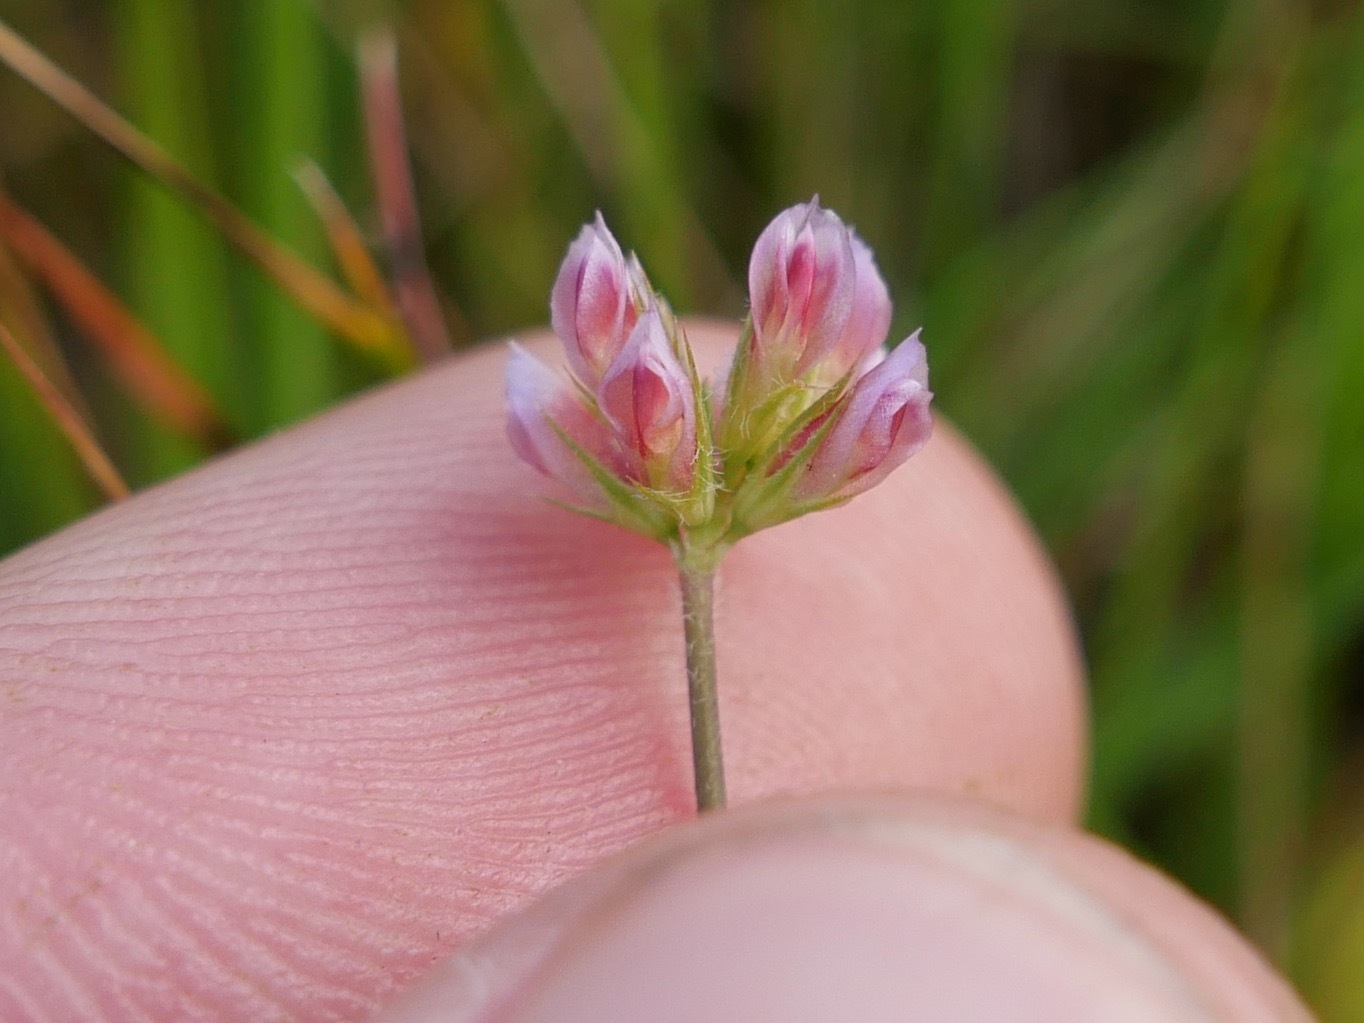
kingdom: Plantae
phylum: Tracheophyta
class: Magnoliopsida
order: Fabales
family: Fabaceae
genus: Trifolium
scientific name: Trifolium bifidum
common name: Notch-leaf clover
